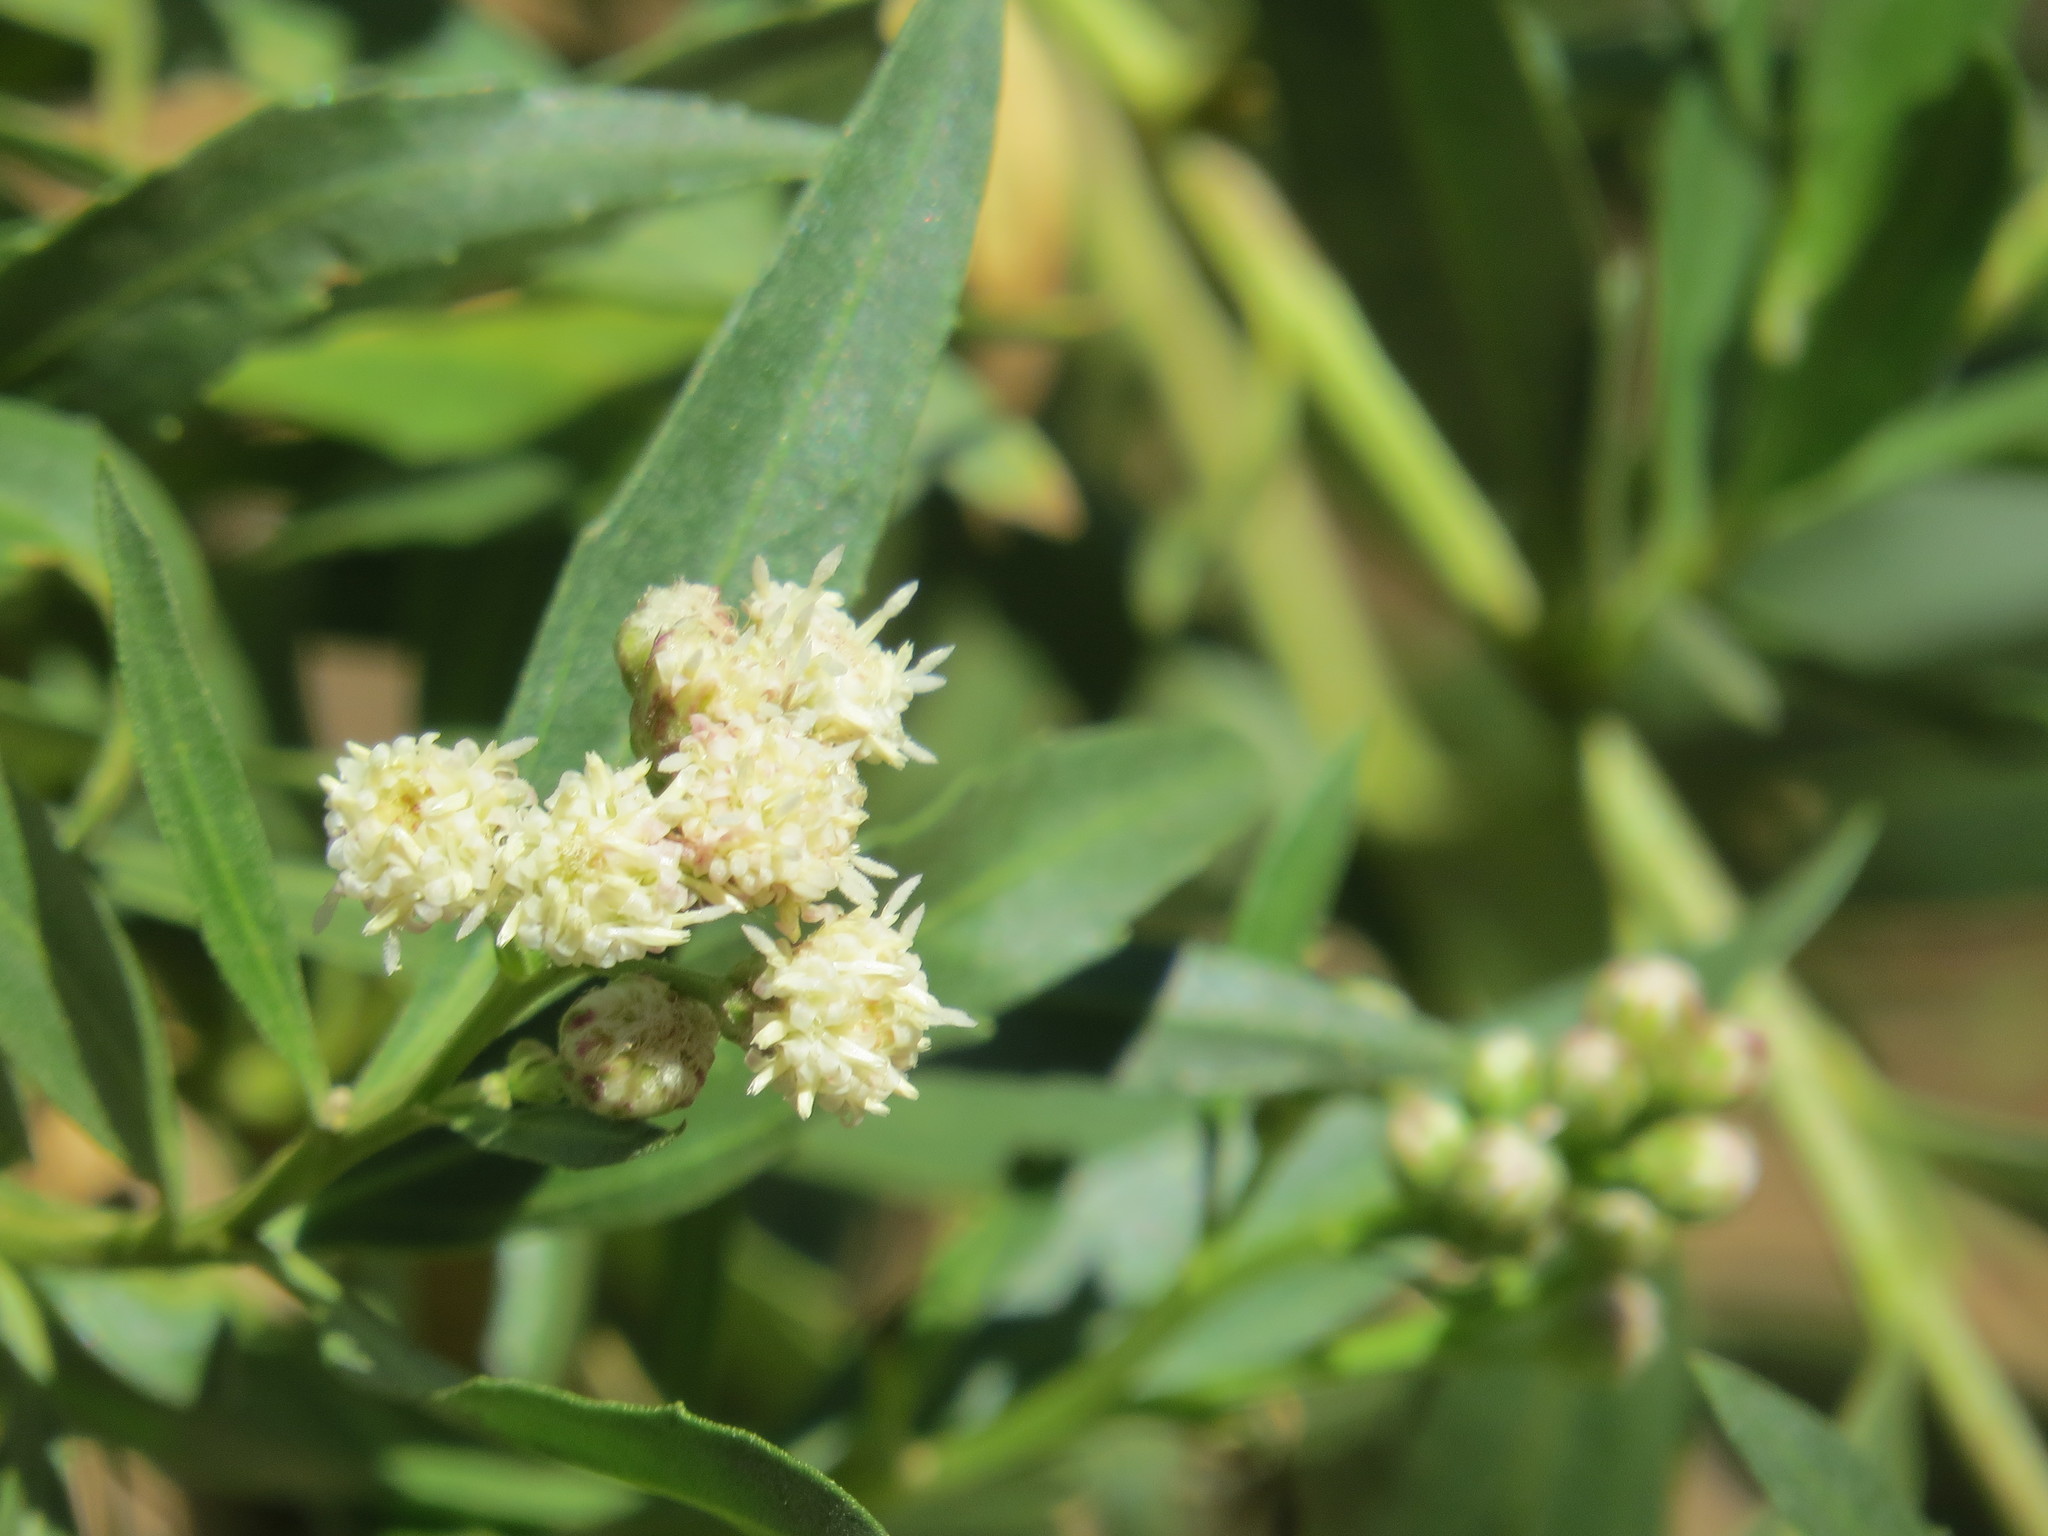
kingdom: Plantae
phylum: Tracheophyta
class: Magnoliopsida
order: Asterales
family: Asteraceae
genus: Baccharis
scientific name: Baccharis salicifolia
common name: Sticky baccharis
